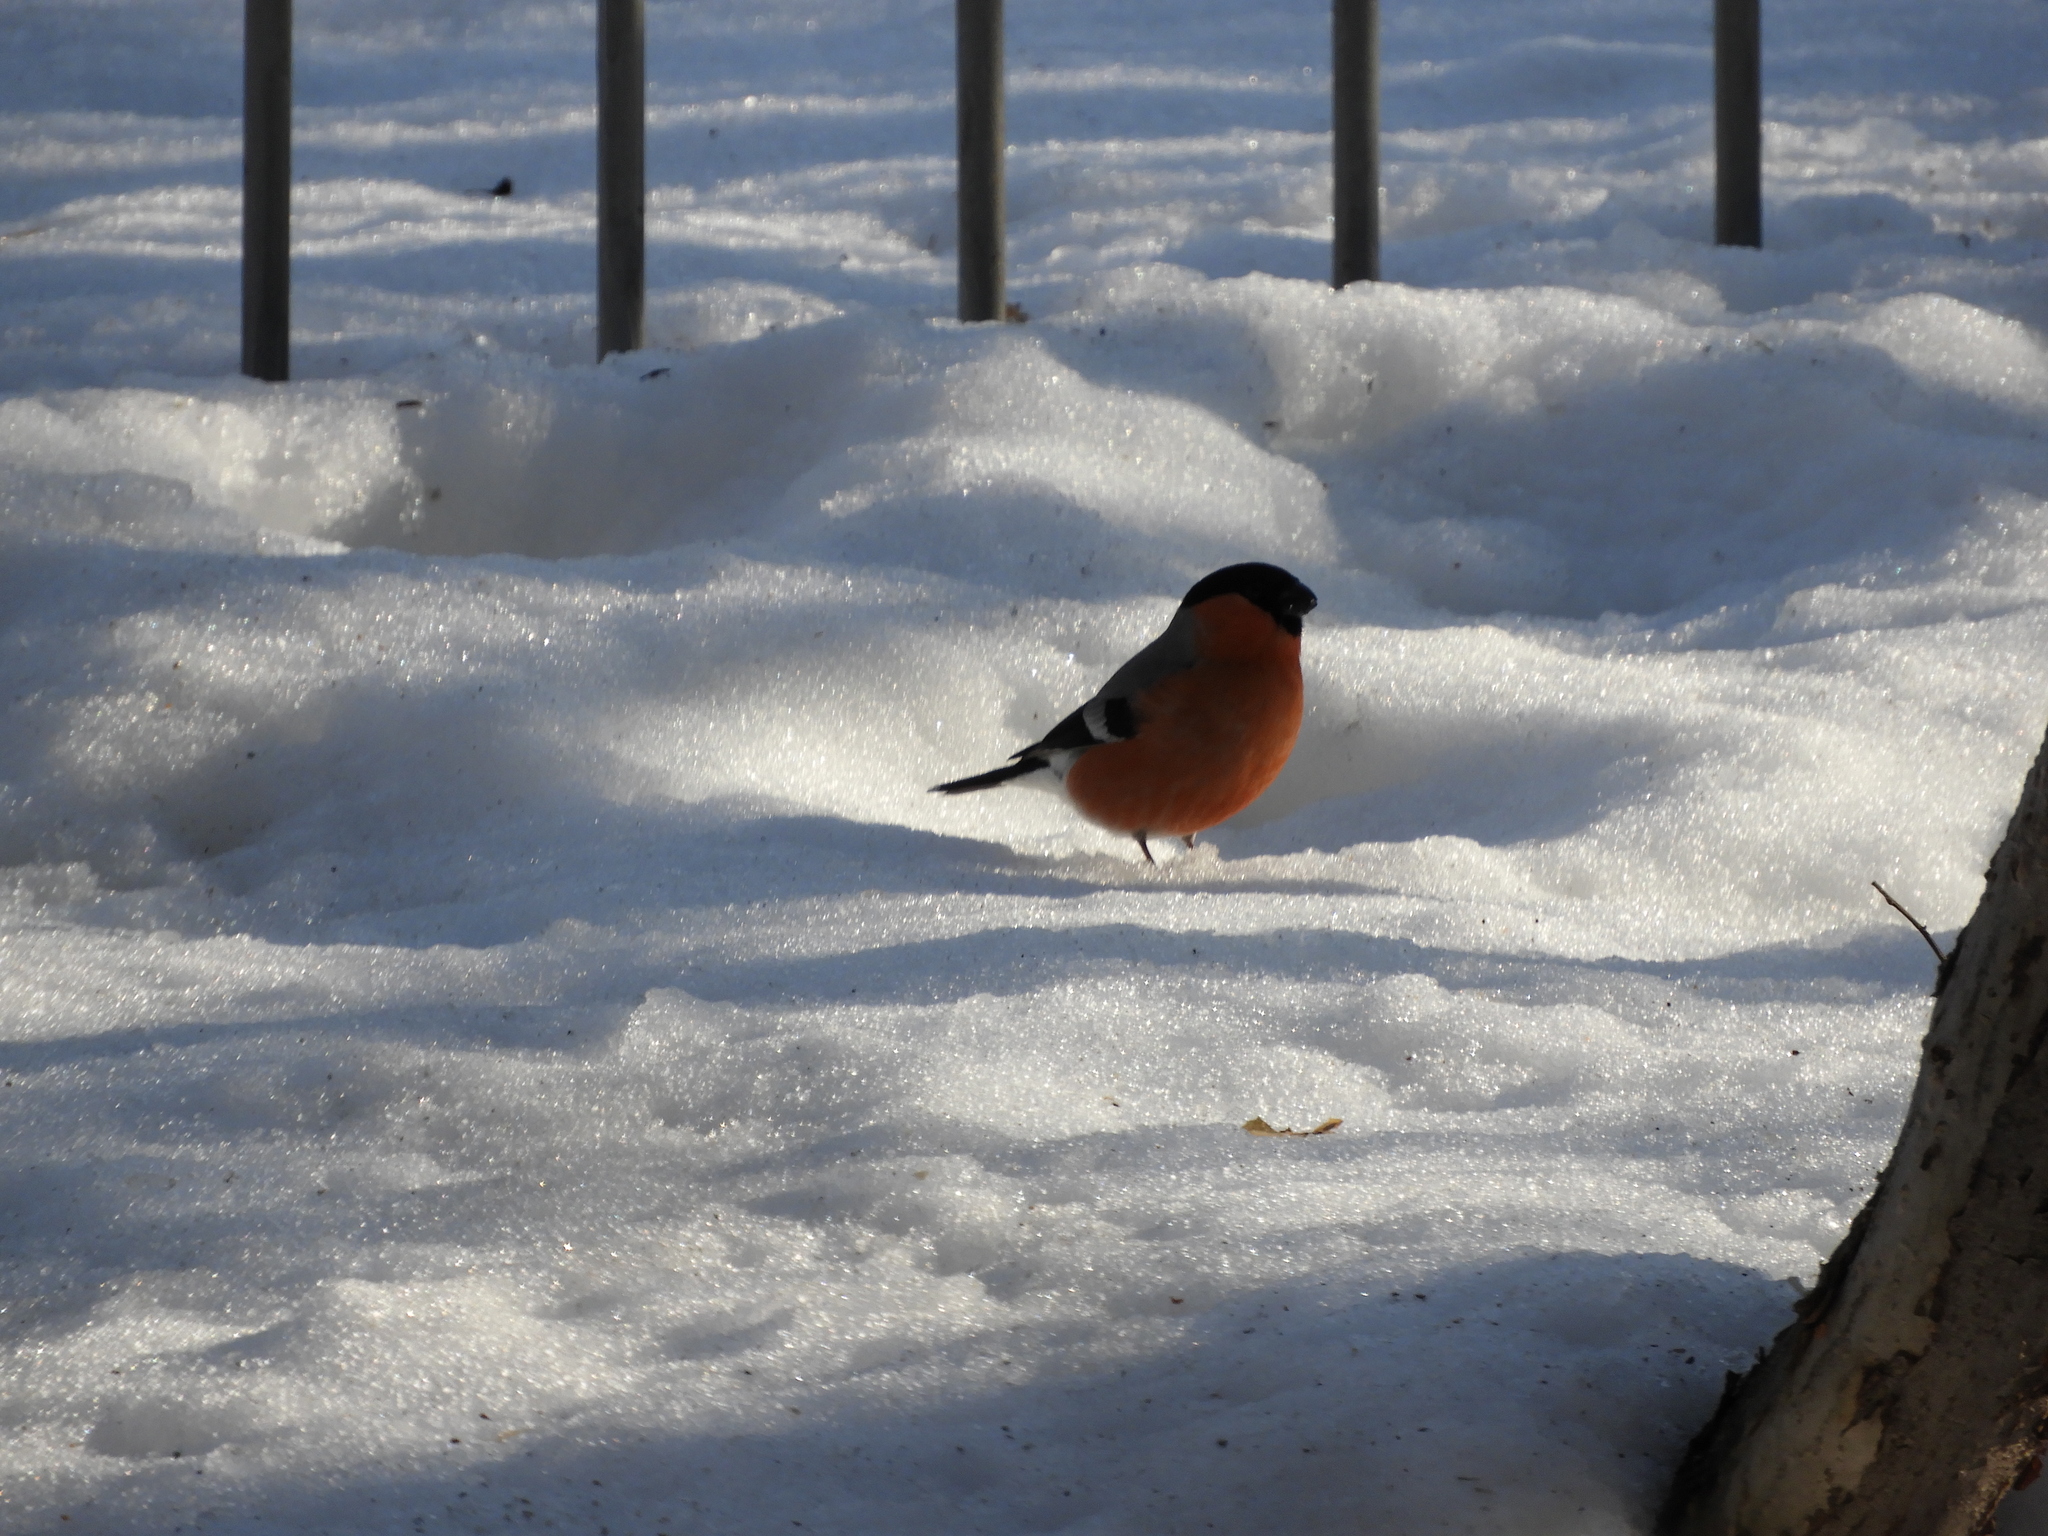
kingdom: Animalia
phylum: Chordata
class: Aves
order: Passeriformes
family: Fringillidae
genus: Pyrrhula
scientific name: Pyrrhula pyrrhula
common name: Eurasian bullfinch
